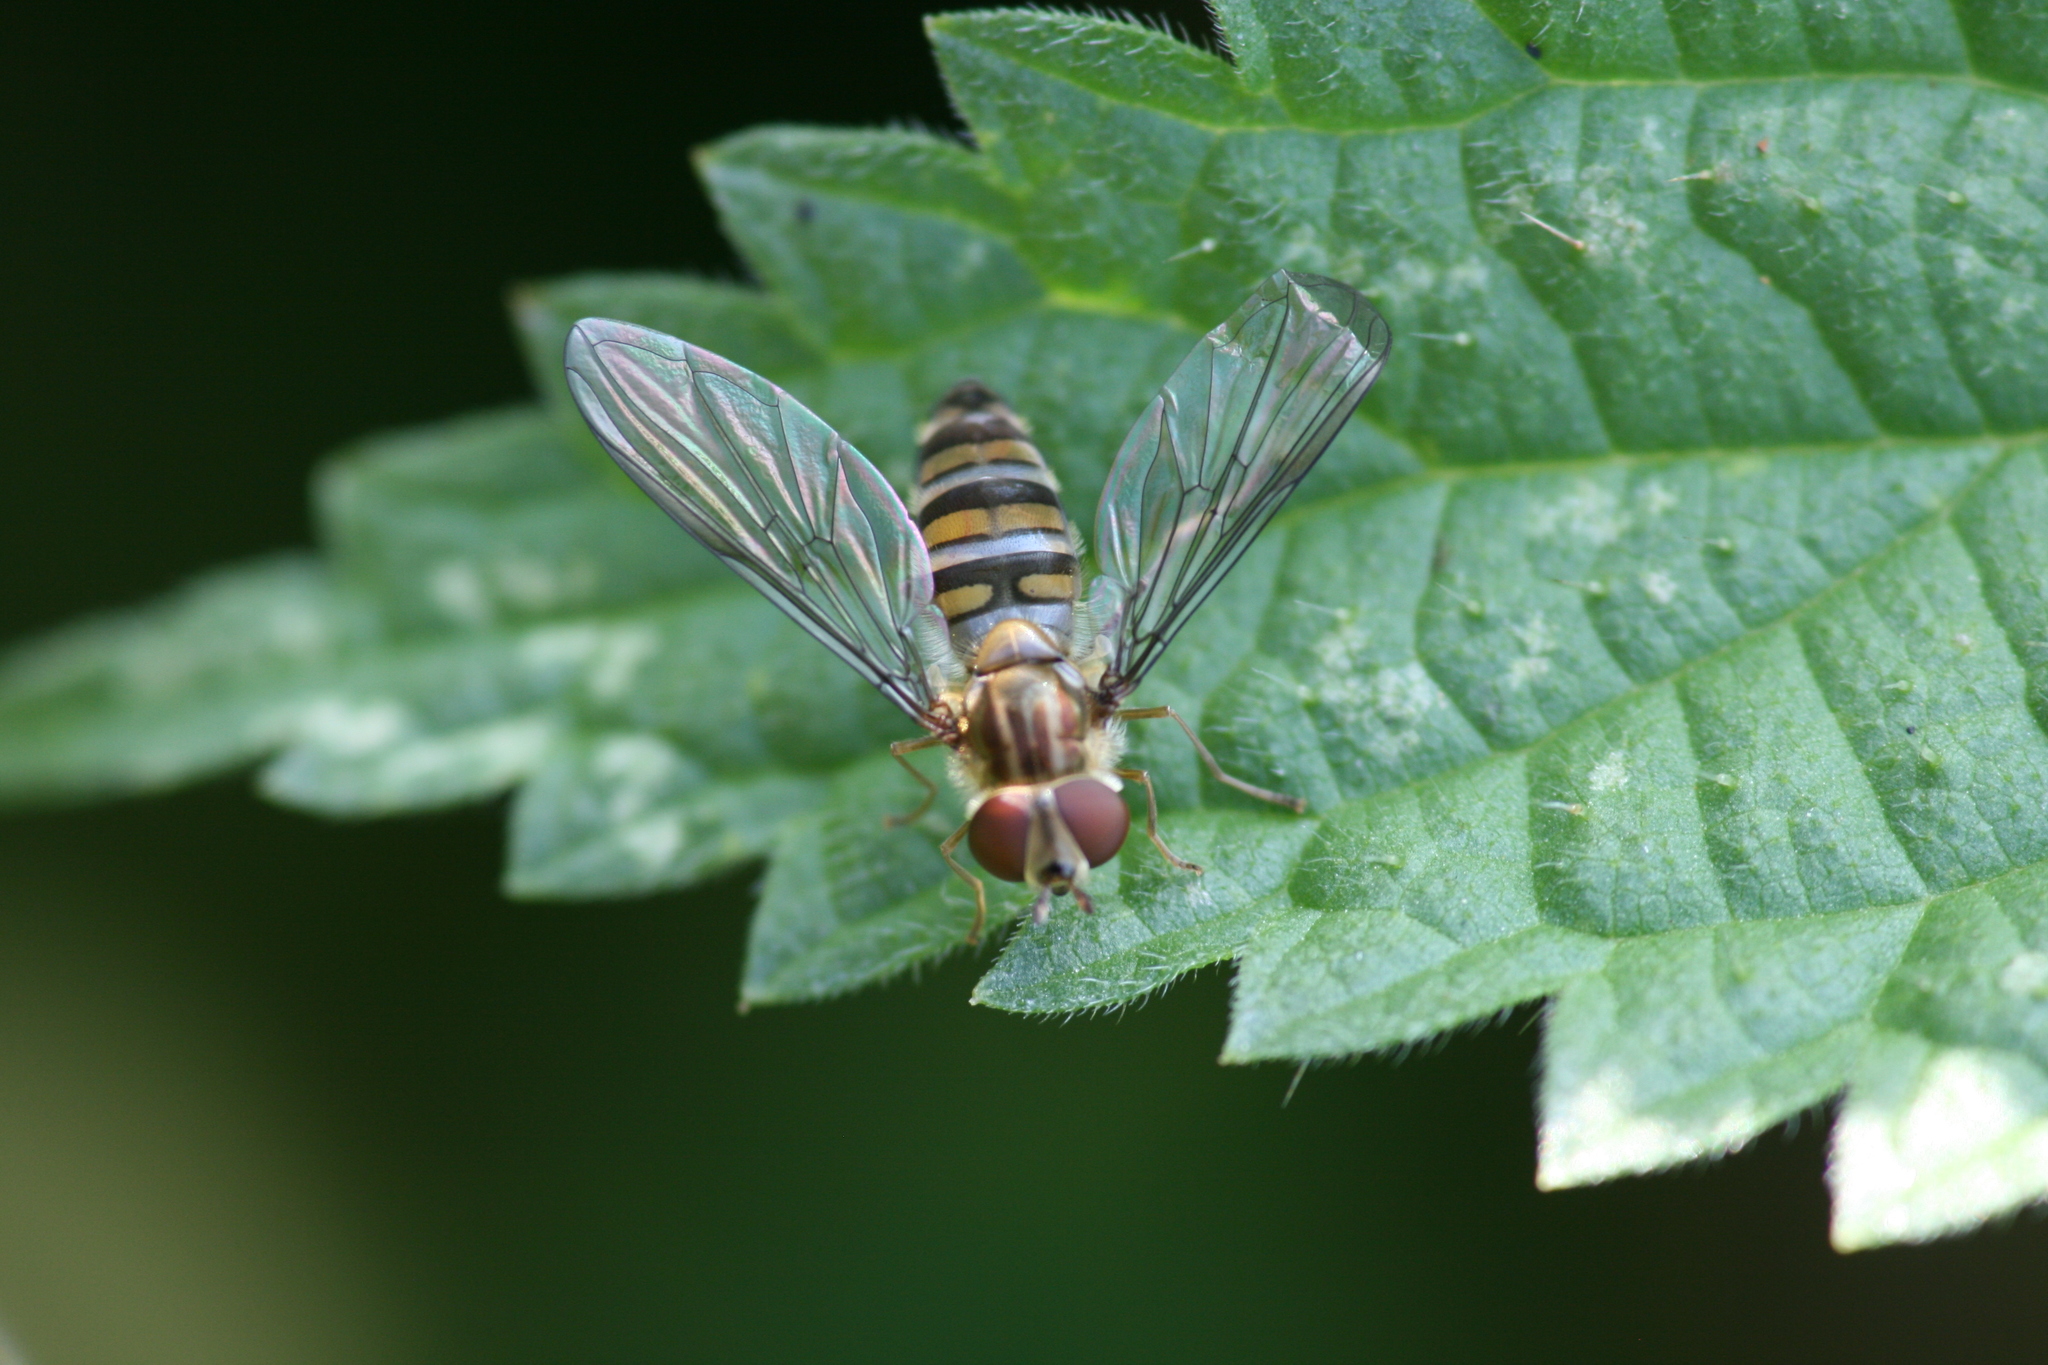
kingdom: Animalia
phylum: Arthropoda
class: Insecta
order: Diptera
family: Syrphidae
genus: Episyrphus
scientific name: Episyrphus balteatus
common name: Marmalade hoverfly
